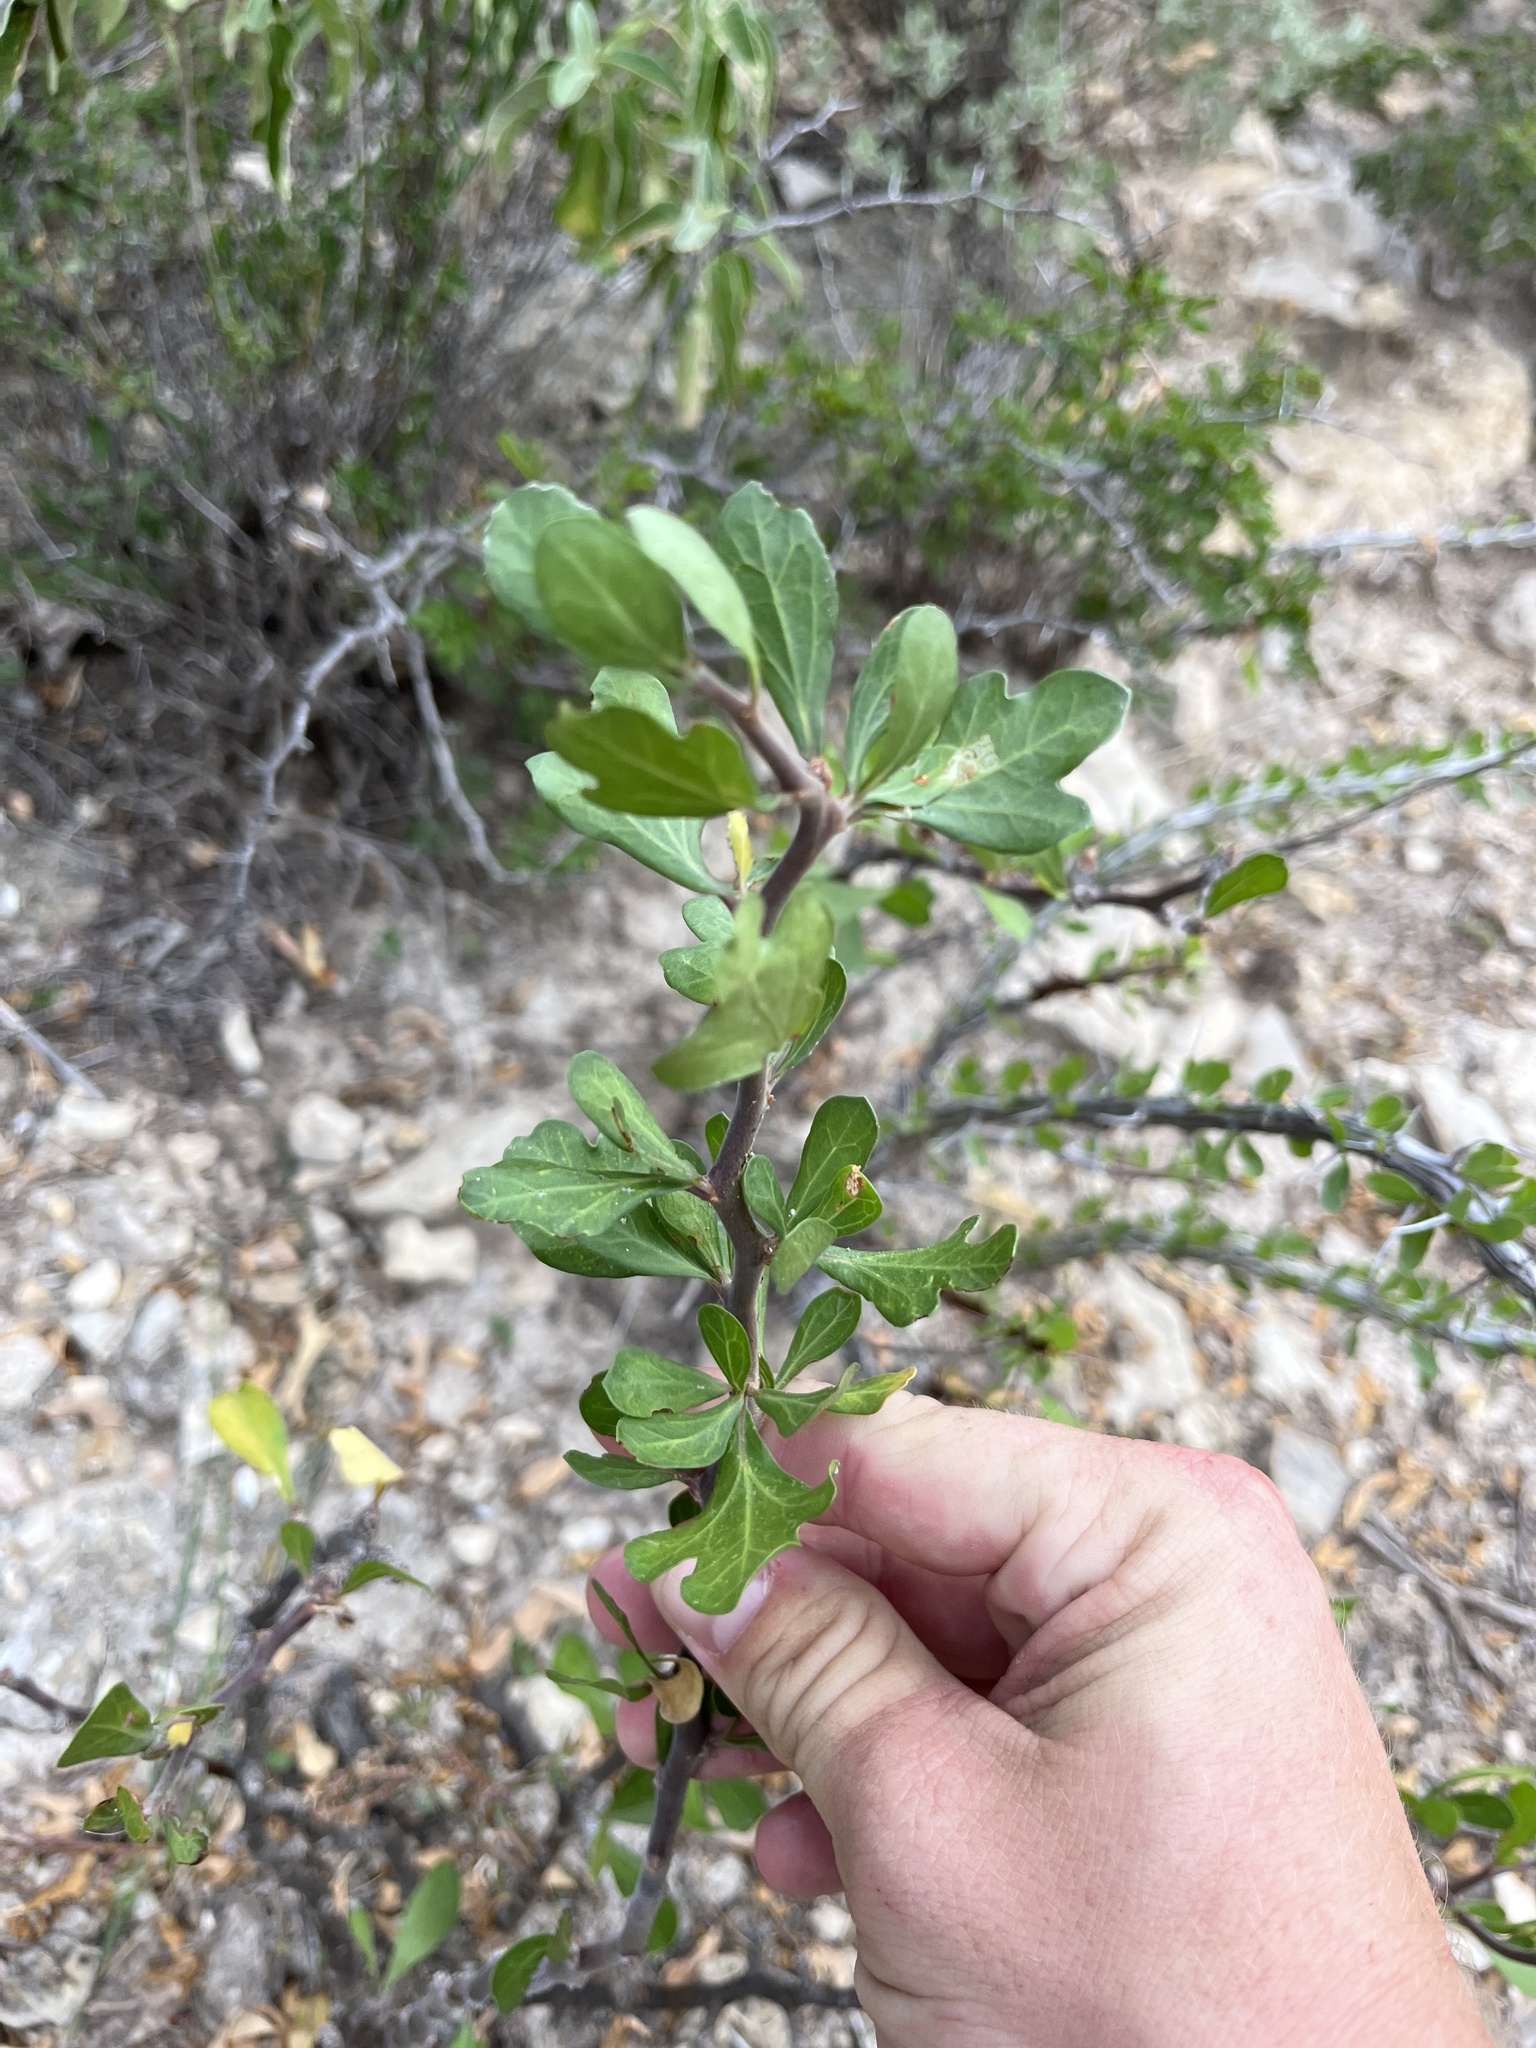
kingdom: Plantae
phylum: Tracheophyta
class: Magnoliopsida
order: Malpighiales
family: Euphorbiaceae
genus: Jatropha
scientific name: Jatropha dioica
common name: Leatherstem
